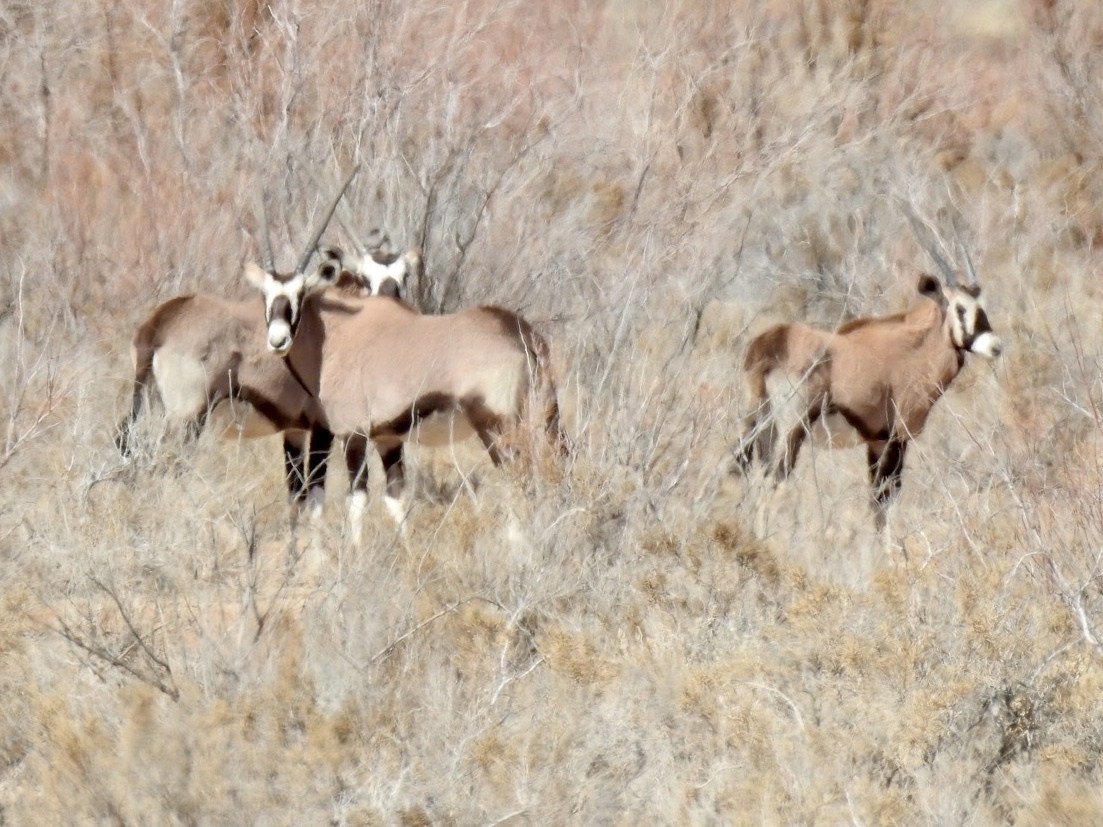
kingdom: Animalia
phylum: Chordata
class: Mammalia
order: Artiodactyla
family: Bovidae
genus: Oryx
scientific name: Oryx gazella
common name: Gemsbok
